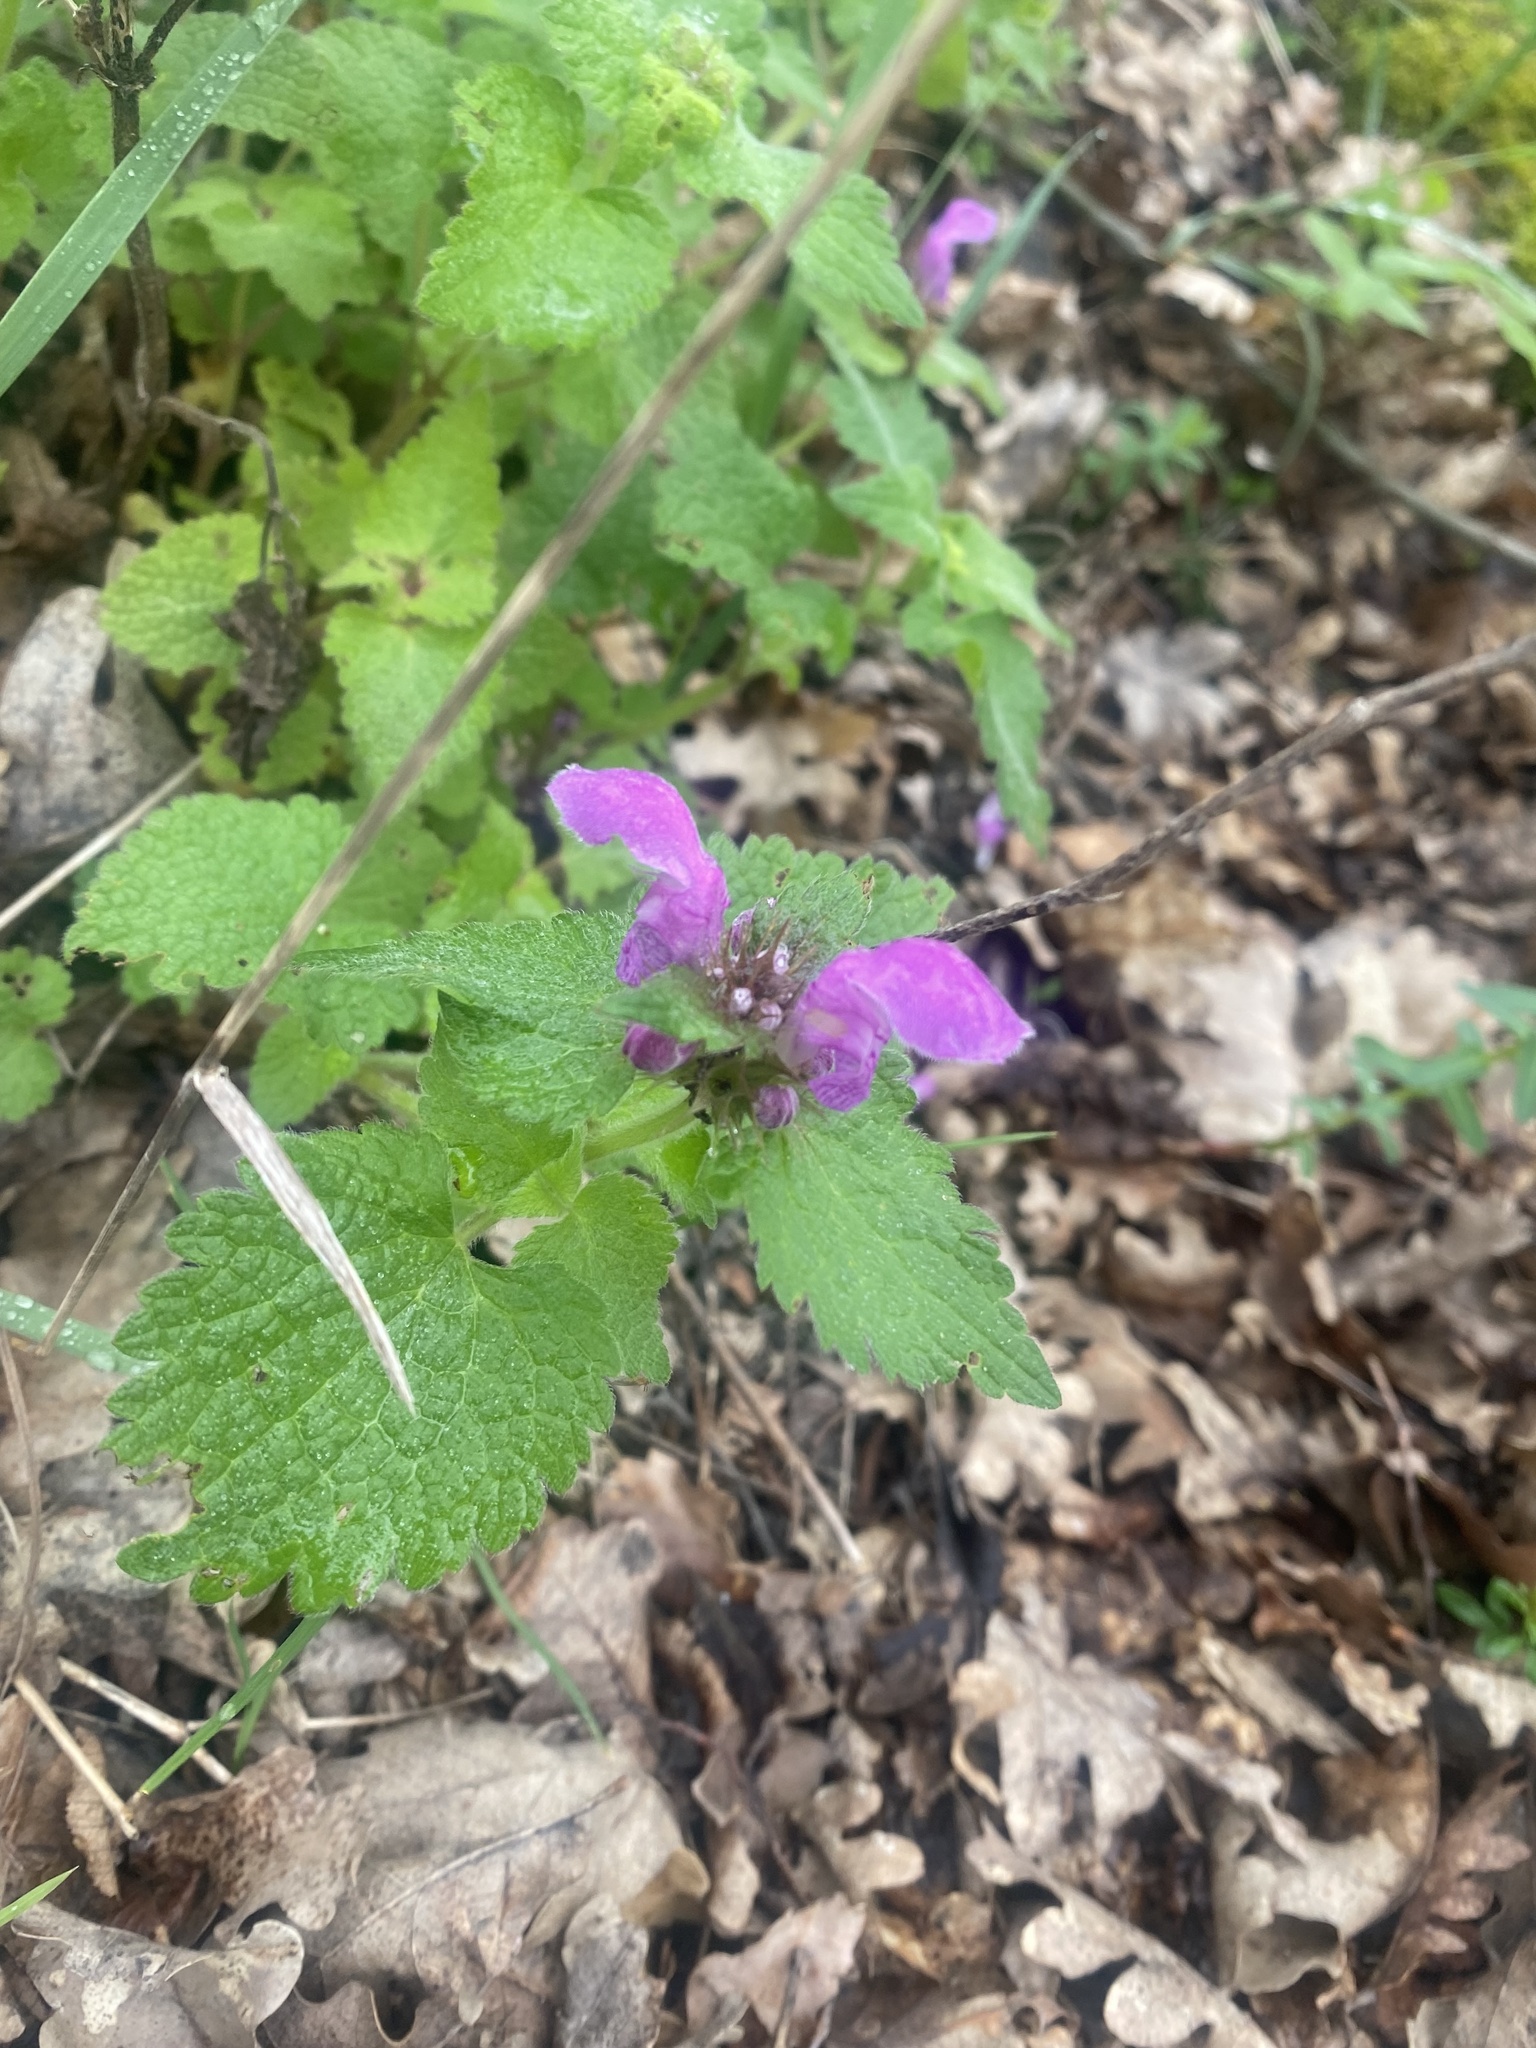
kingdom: Plantae
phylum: Tracheophyta
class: Magnoliopsida
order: Lamiales
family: Lamiaceae
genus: Lamium
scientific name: Lamium maculatum
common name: Spotted dead-nettle
